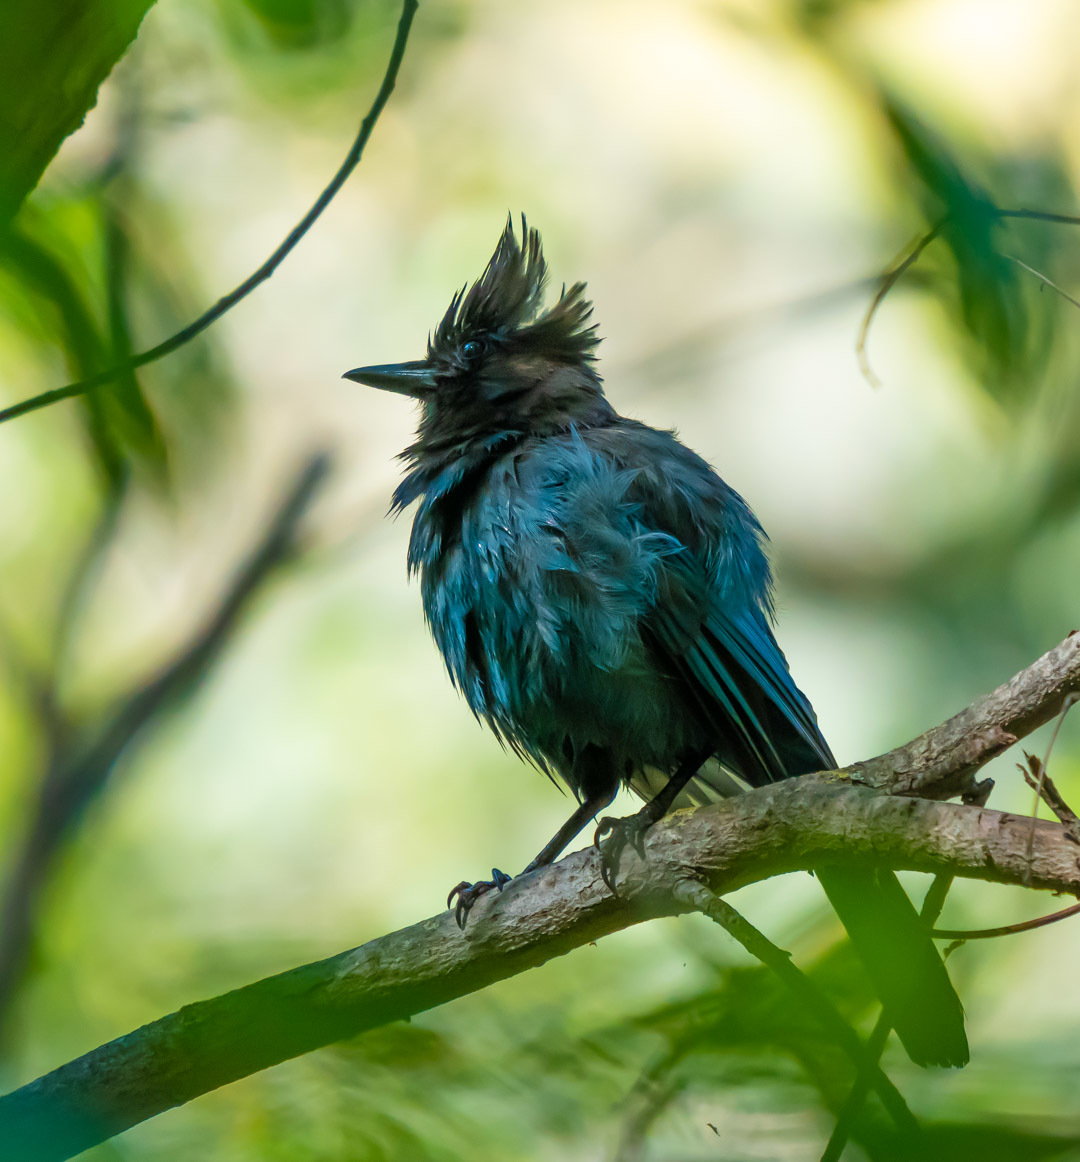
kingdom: Animalia
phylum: Chordata
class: Aves
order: Passeriformes
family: Corvidae
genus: Cyanocitta
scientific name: Cyanocitta stelleri
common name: Steller's jay
